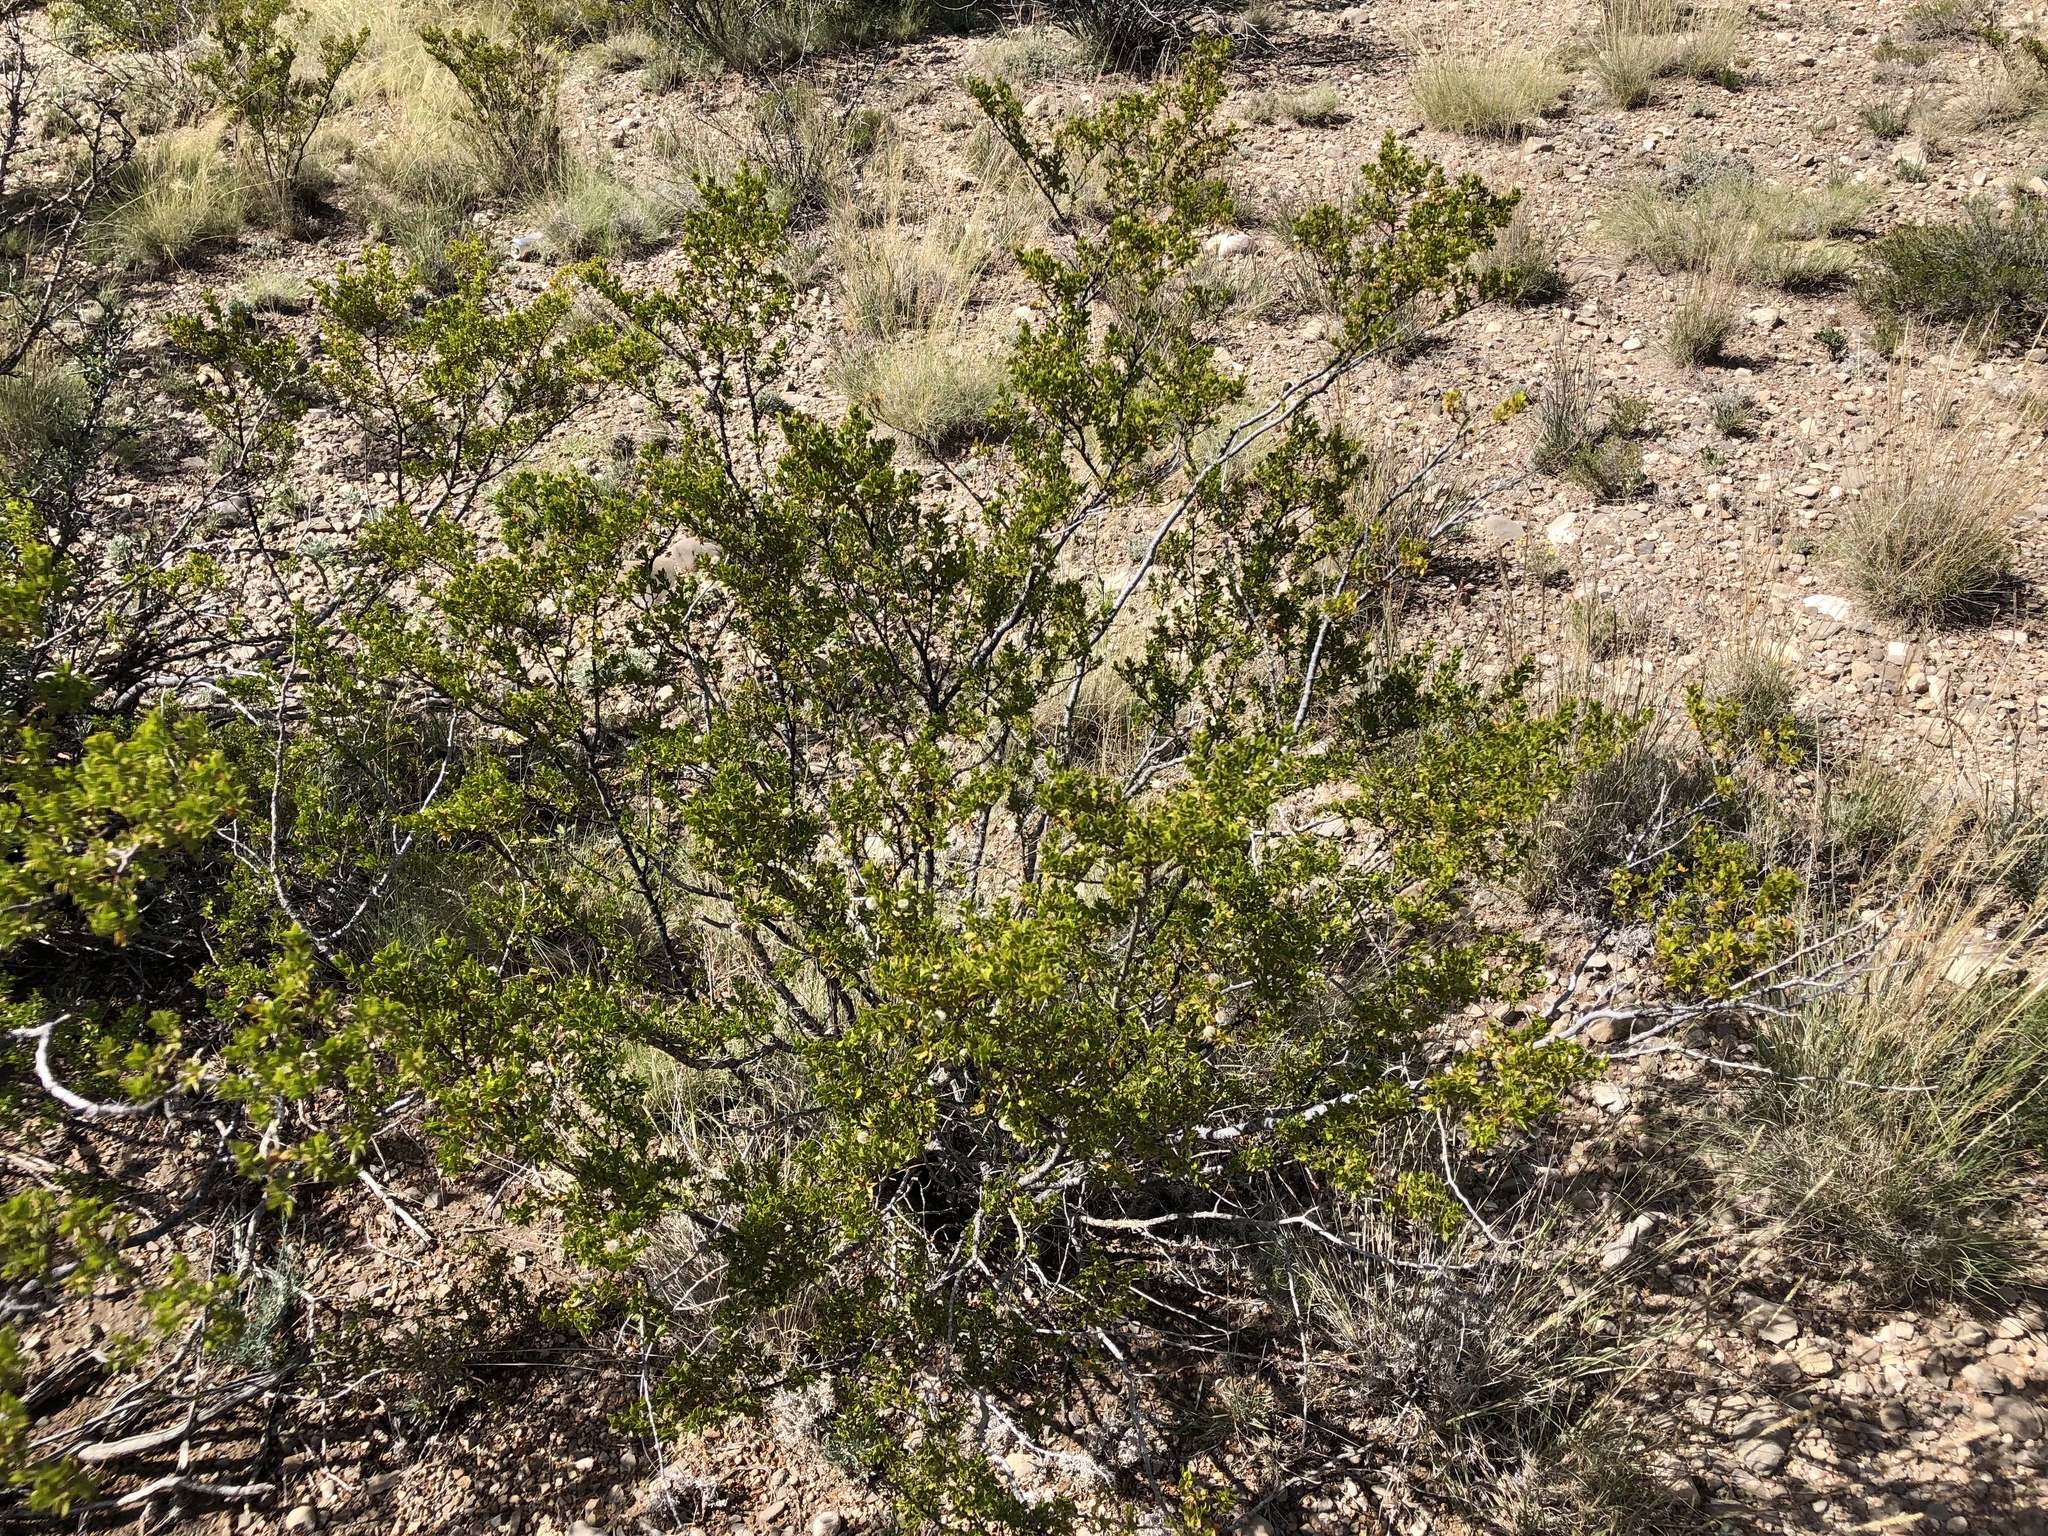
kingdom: Plantae
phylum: Tracheophyta
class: Magnoliopsida
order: Zygophyllales
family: Zygophyllaceae
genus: Larrea
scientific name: Larrea tridentata
